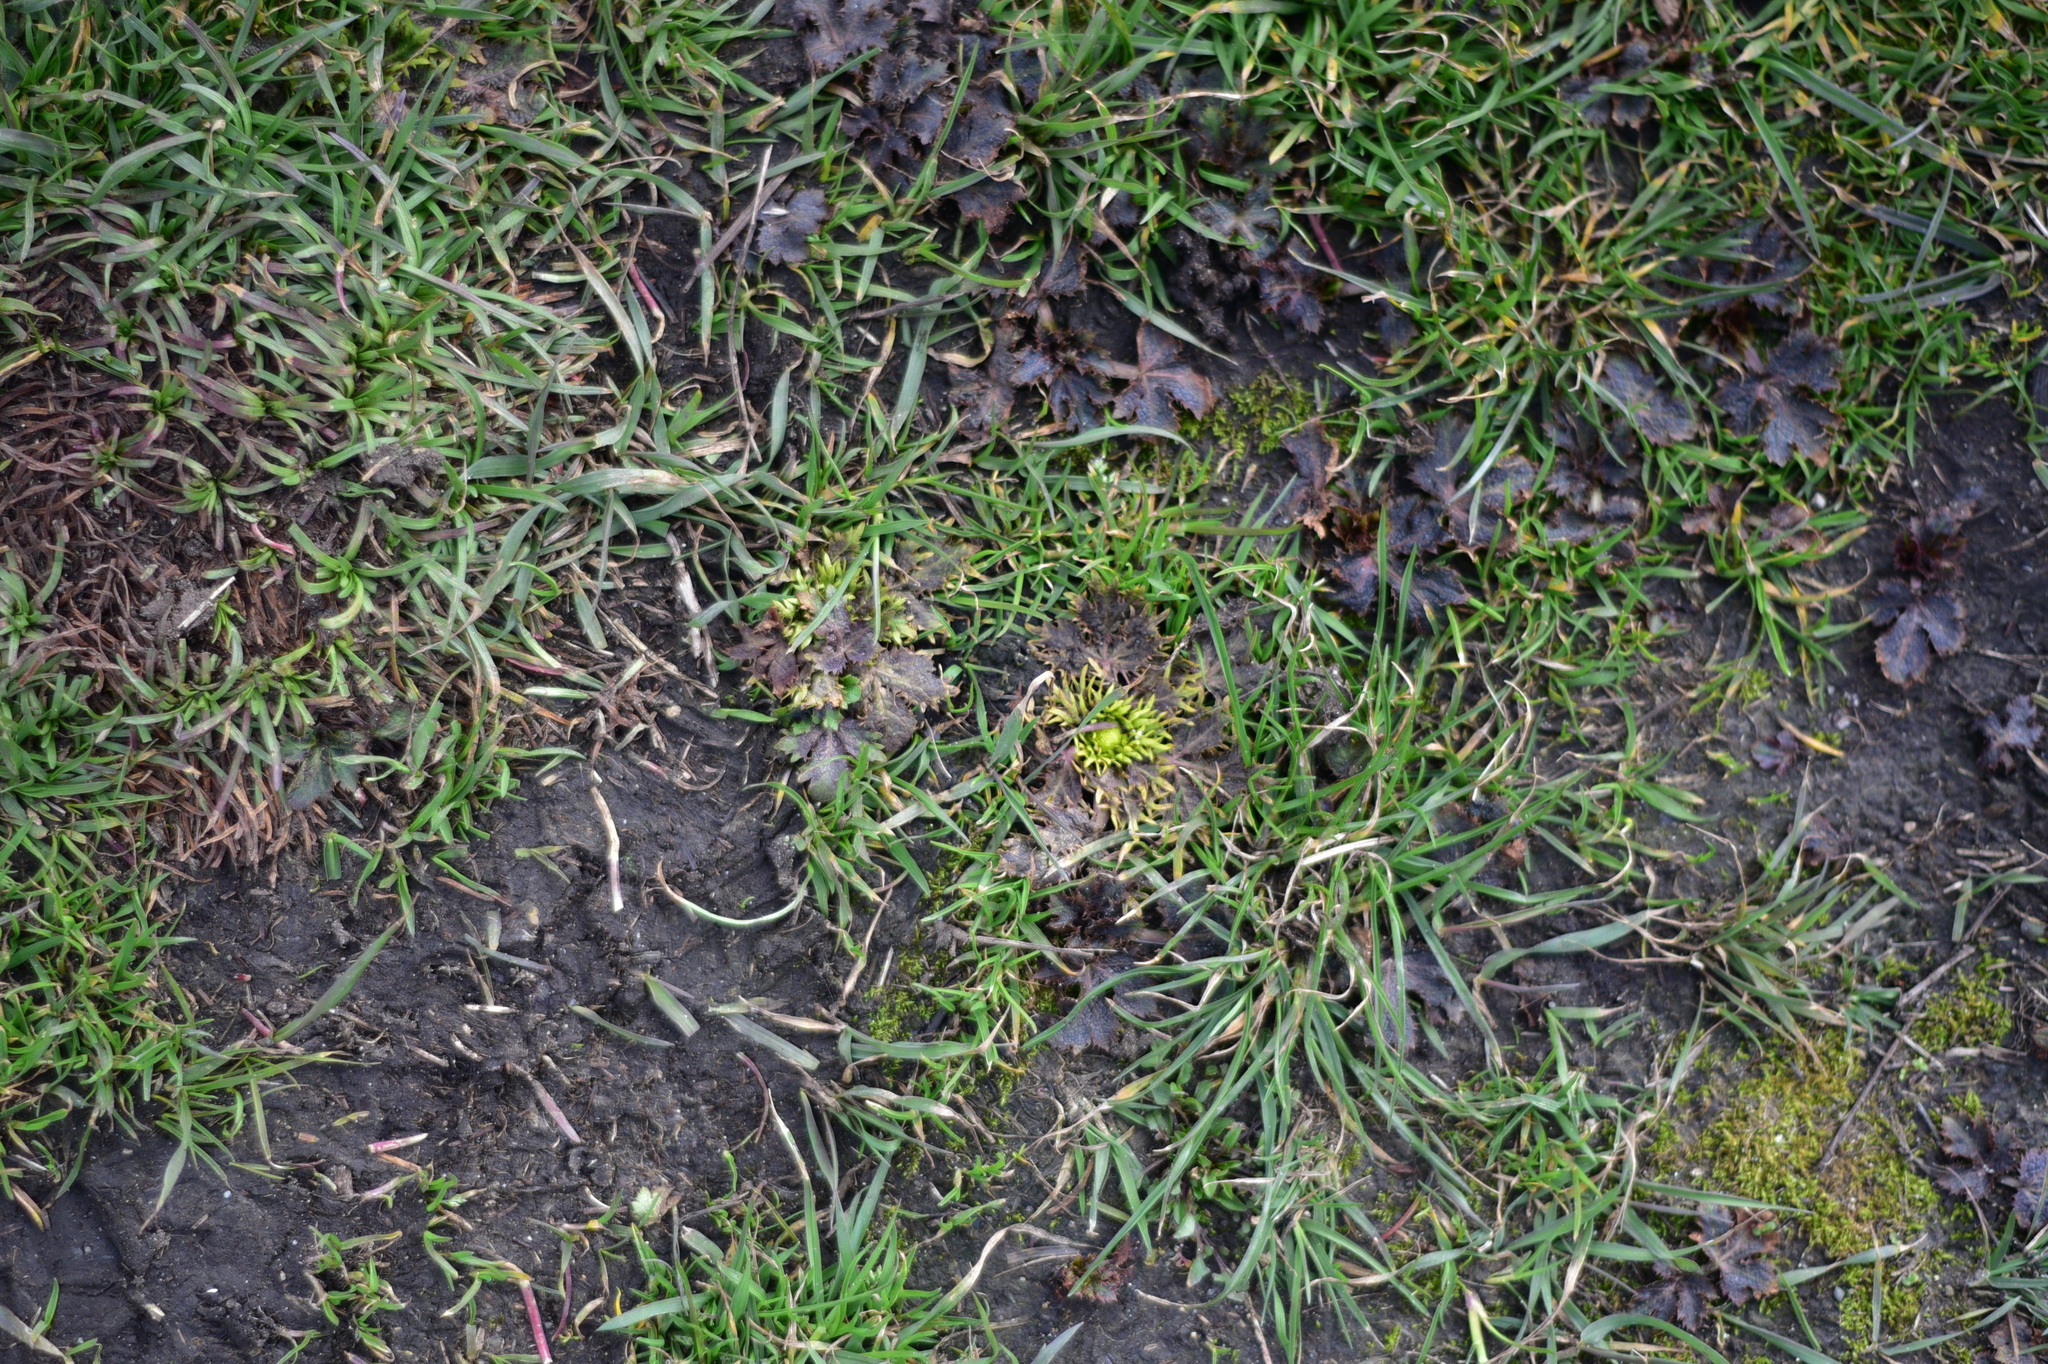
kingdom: Plantae
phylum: Tracheophyta
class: Magnoliopsida
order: Apiales
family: Apiaceae
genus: Sanicula
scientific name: Sanicula arctopoides
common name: Footsteps-of-spring
